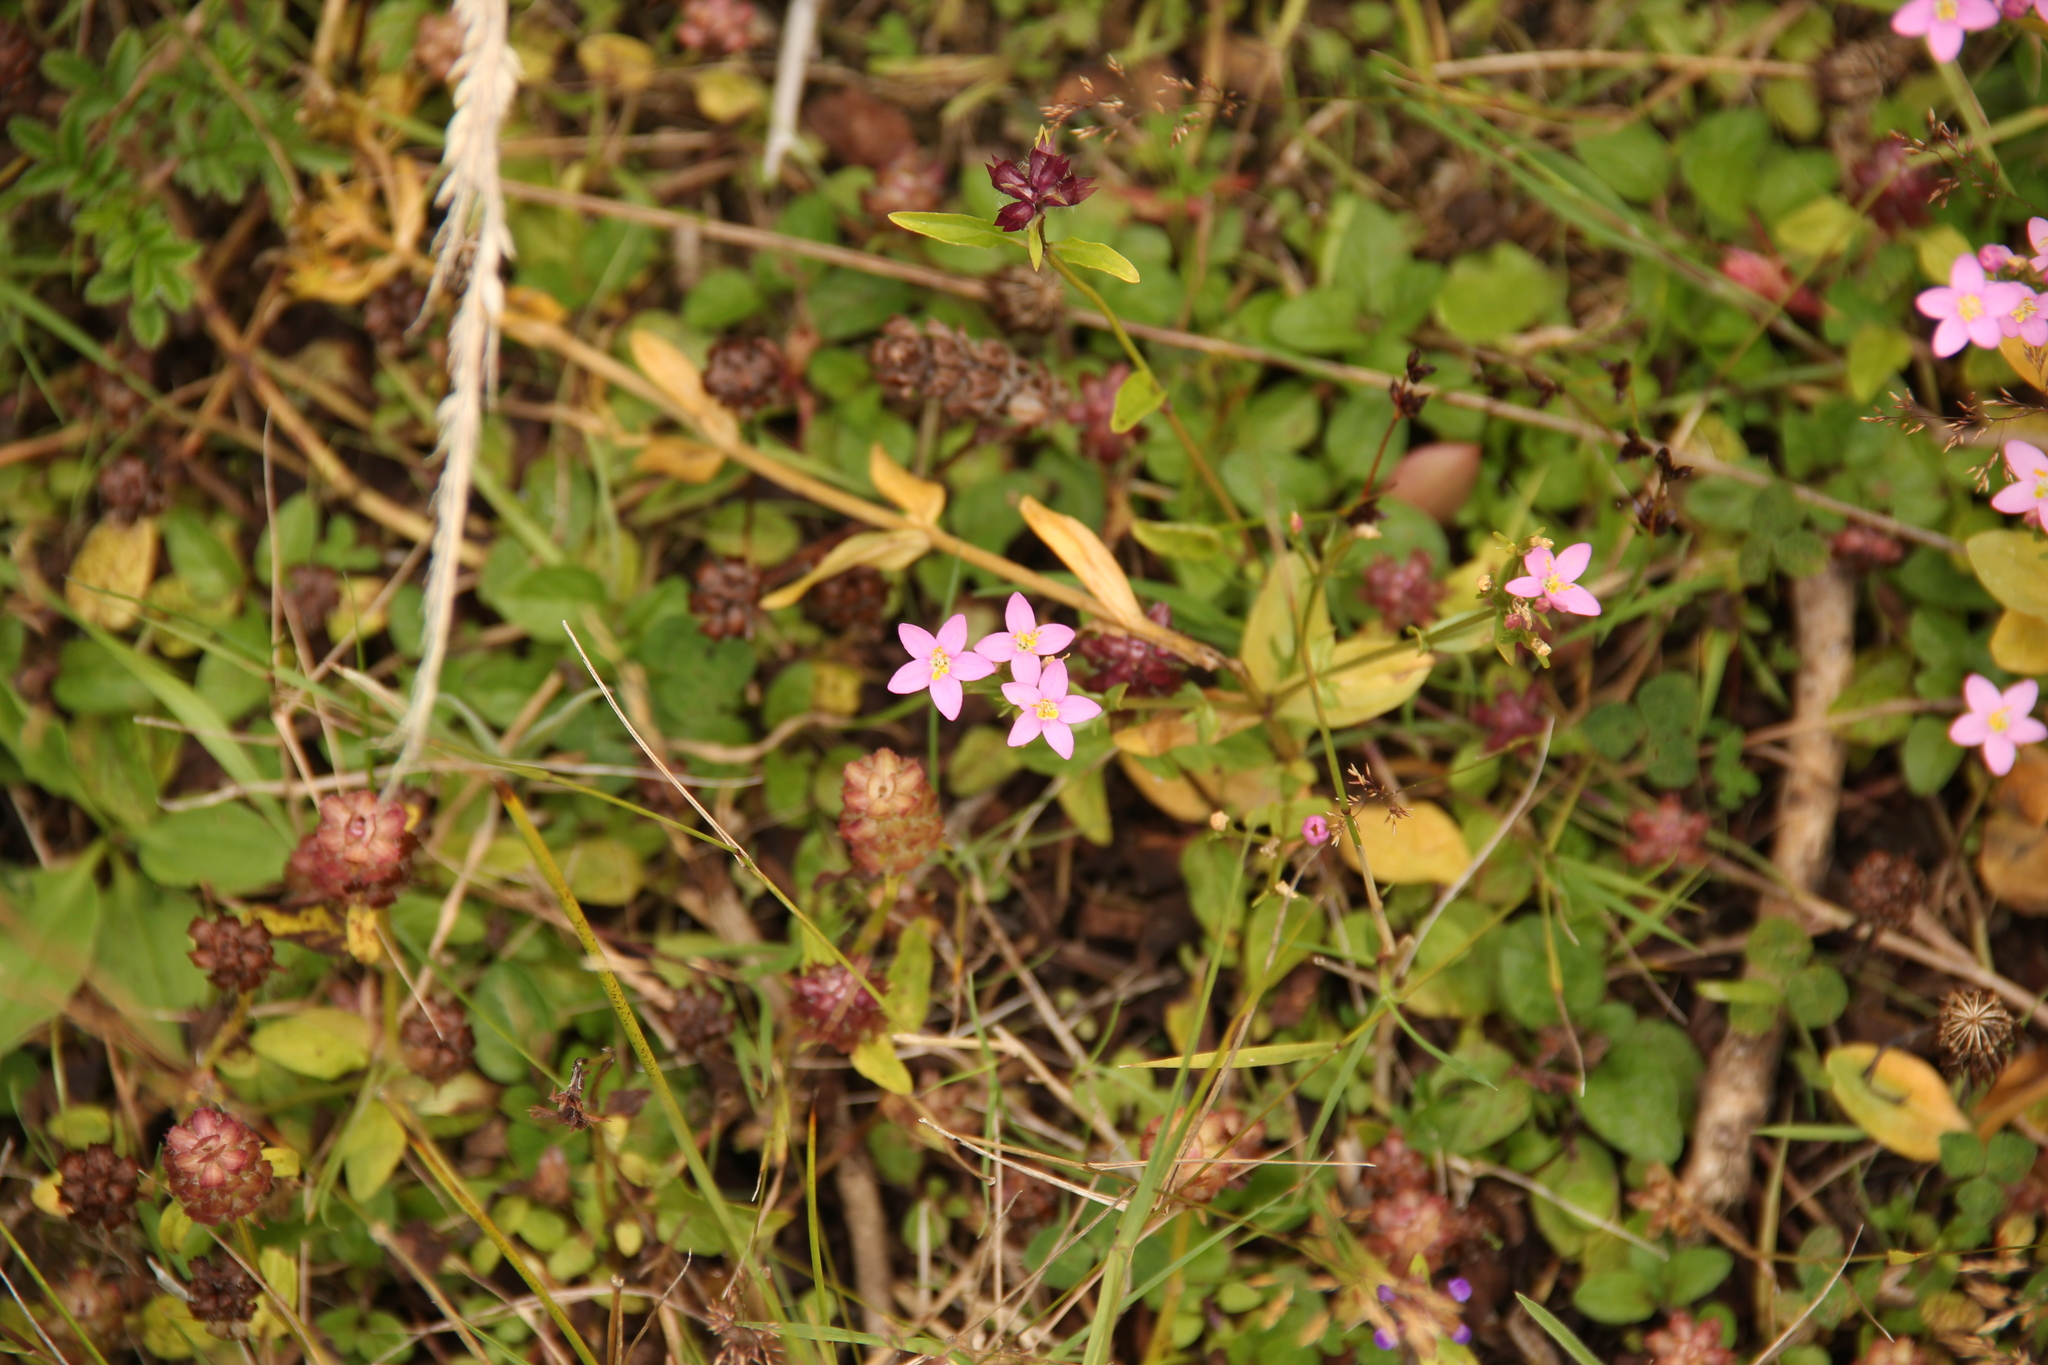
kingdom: Plantae
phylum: Tracheophyta
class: Magnoliopsida
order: Gentianales
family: Gentianaceae
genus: Centaurium
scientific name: Centaurium cachanlahuen
